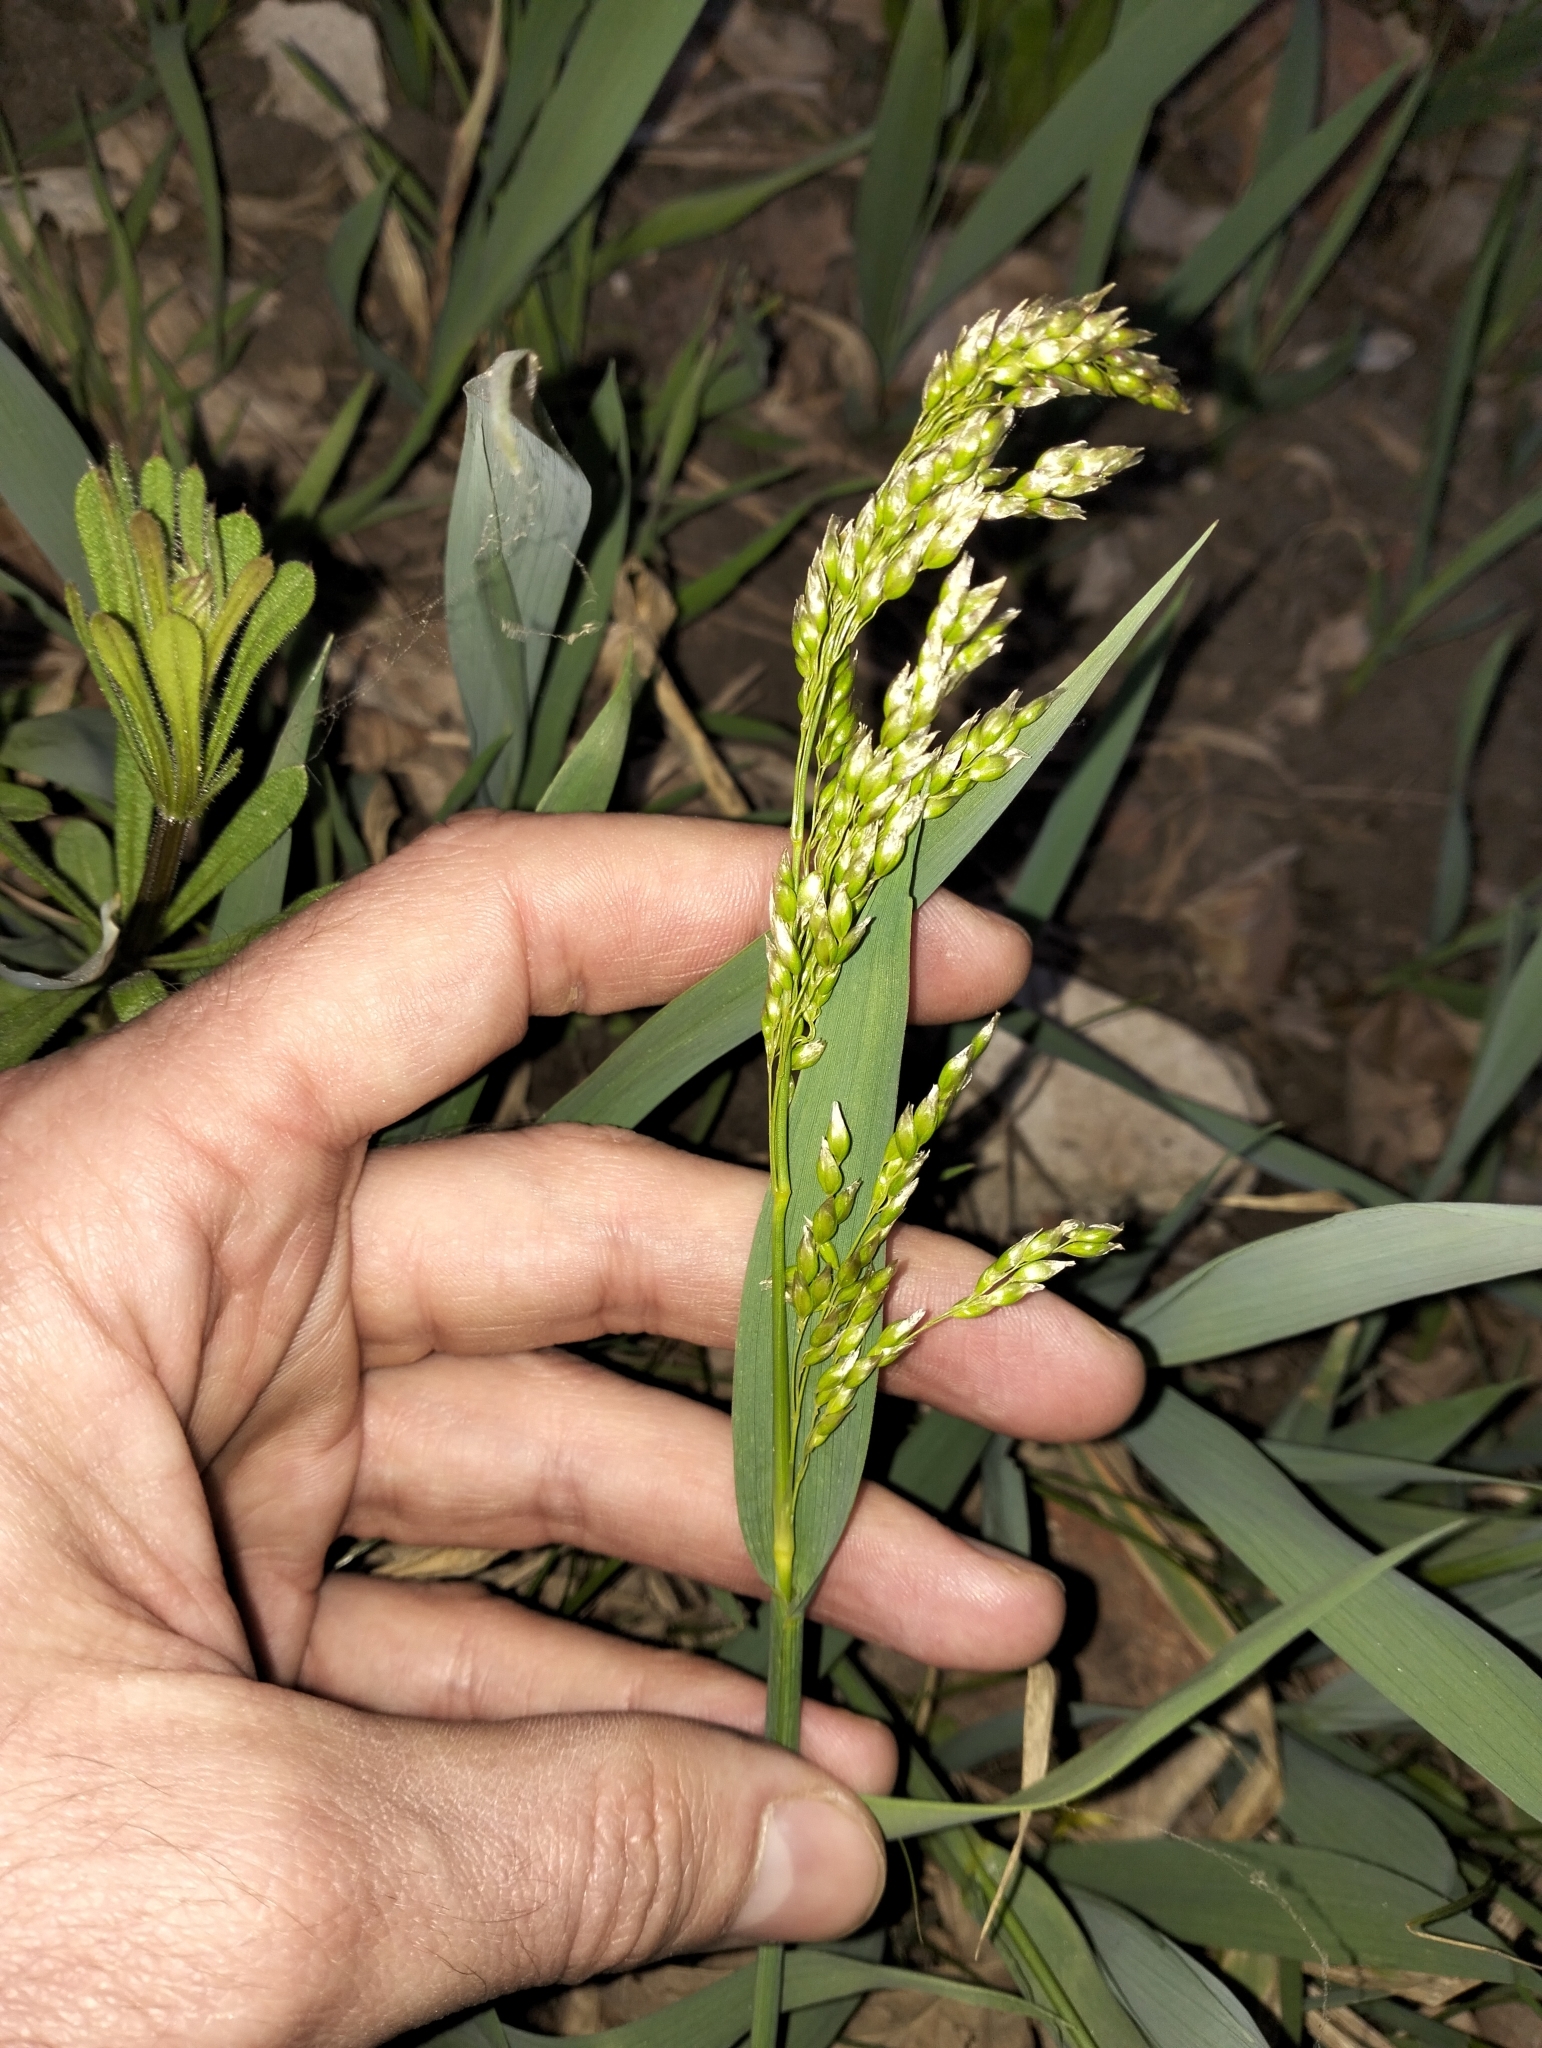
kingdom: Plantae
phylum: Tracheophyta
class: Liliopsida
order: Poales
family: Poaceae
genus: Anthoxanthum
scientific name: Anthoxanthum repens
